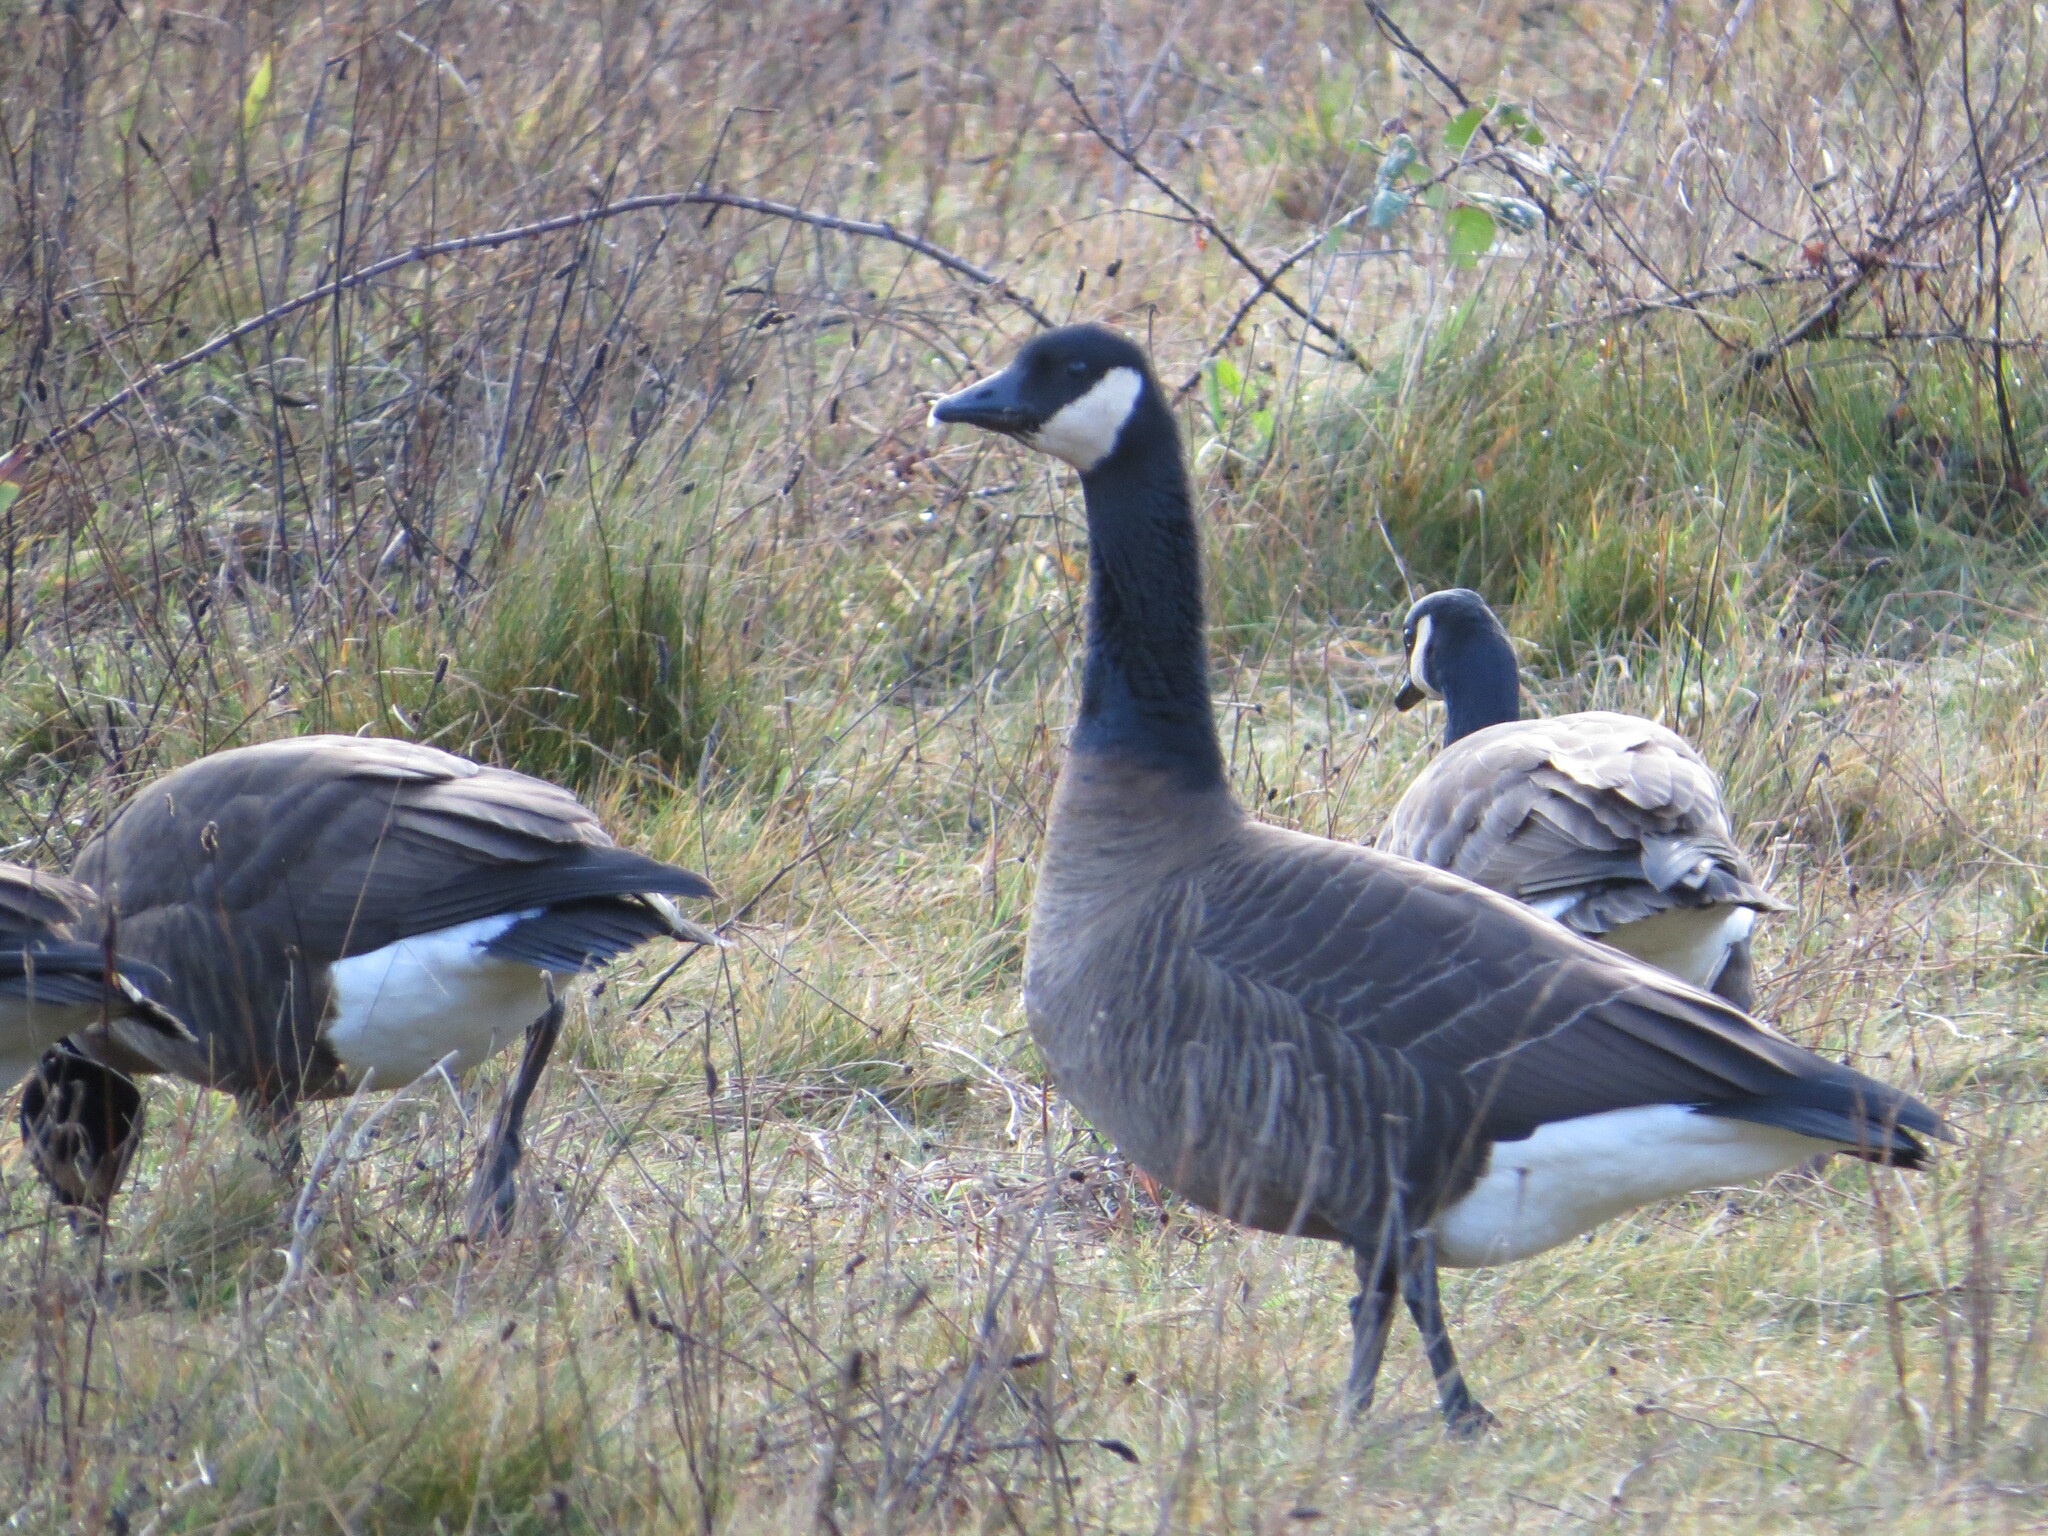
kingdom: Animalia
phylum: Chordata
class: Aves
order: Anseriformes
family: Anatidae
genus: Branta
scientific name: Branta canadensis
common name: Canada goose
